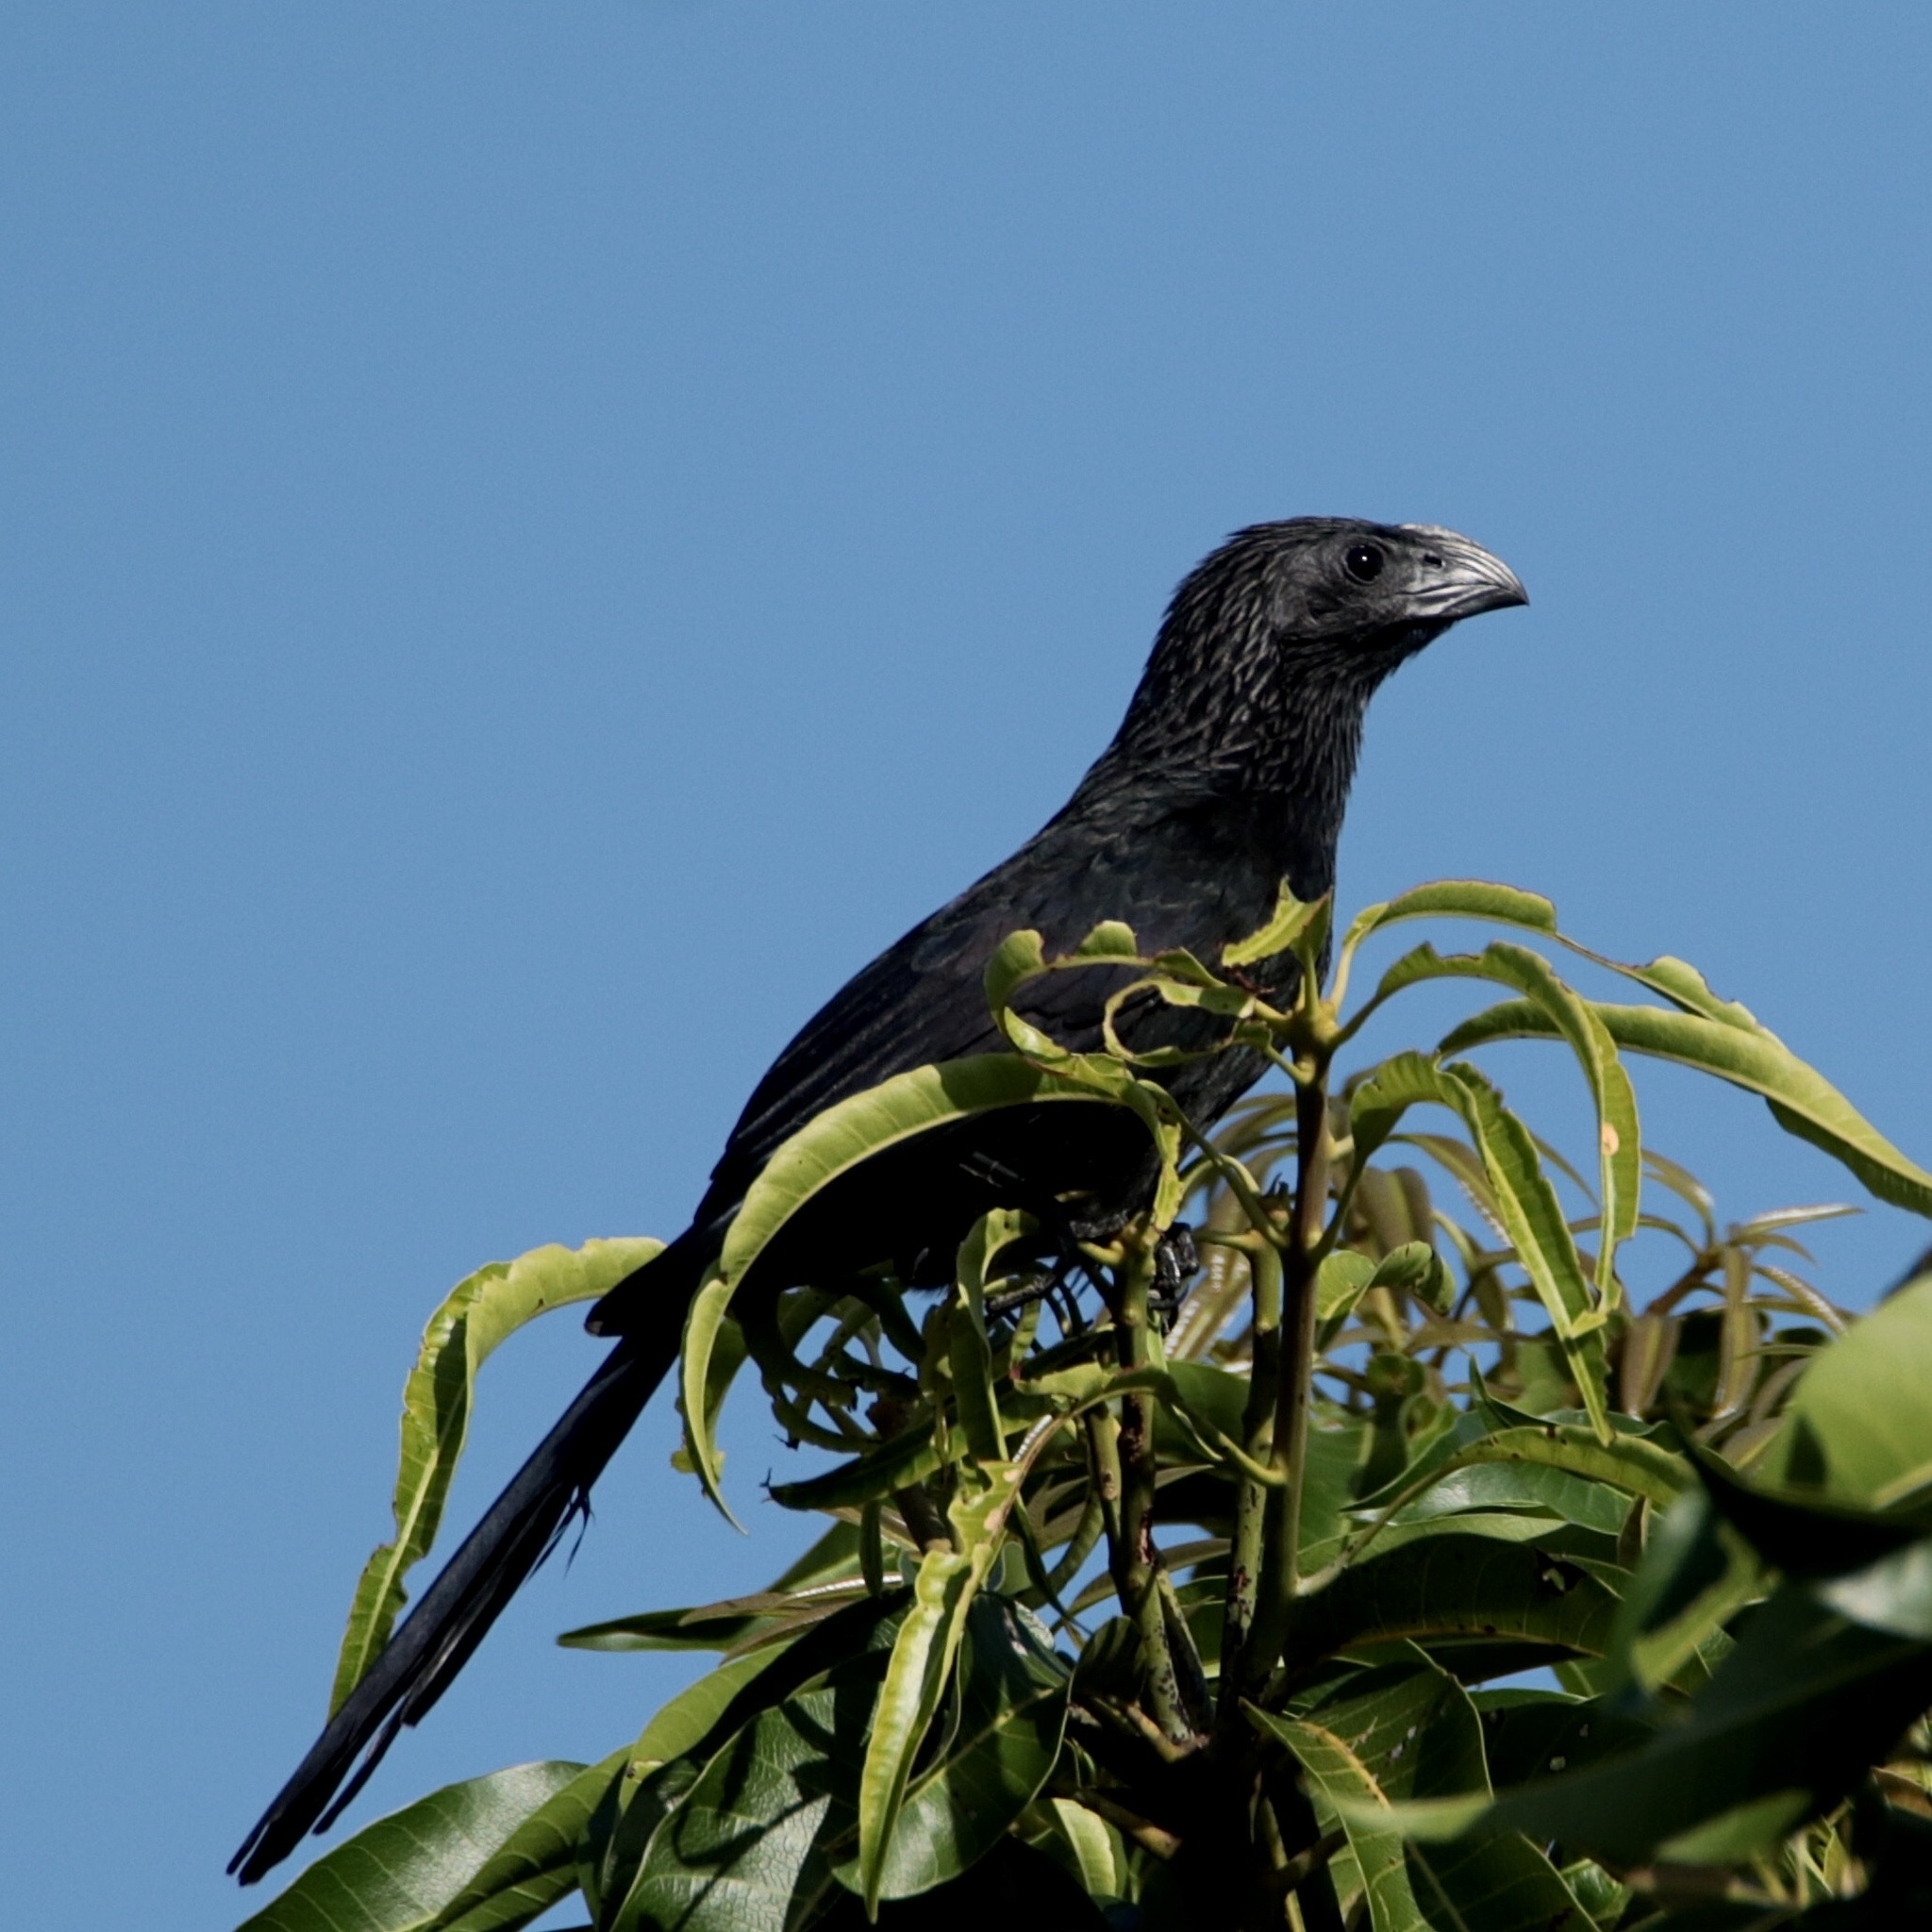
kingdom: Animalia
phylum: Chordata
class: Aves
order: Cuculiformes
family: Cuculidae
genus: Crotophaga
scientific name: Crotophaga sulcirostris
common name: Groove-billed ani
